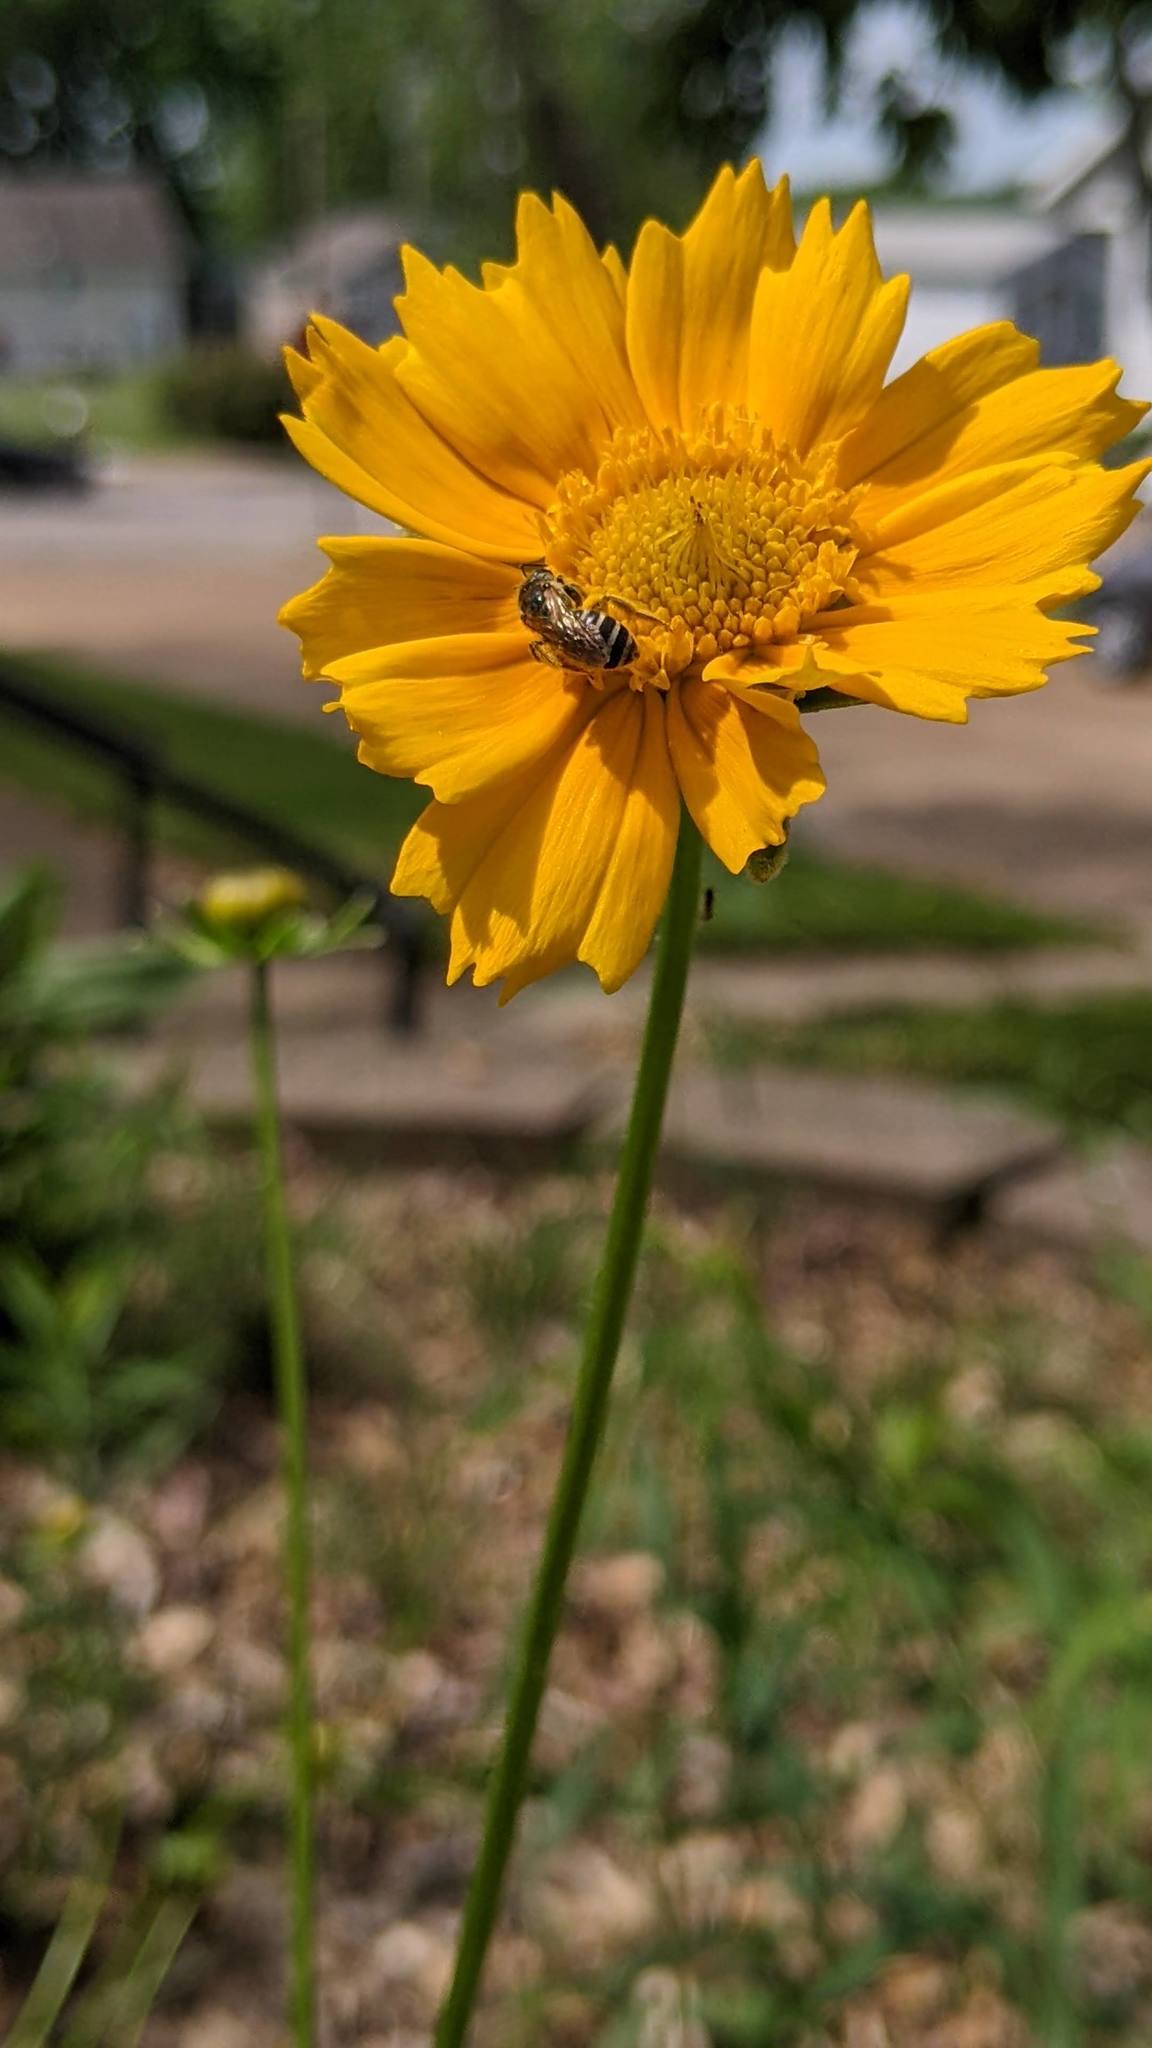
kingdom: Animalia
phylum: Arthropoda
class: Insecta
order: Hymenoptera
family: Halictidae
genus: Halictus
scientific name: Halictus ligatus
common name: Ligated furrow bee
